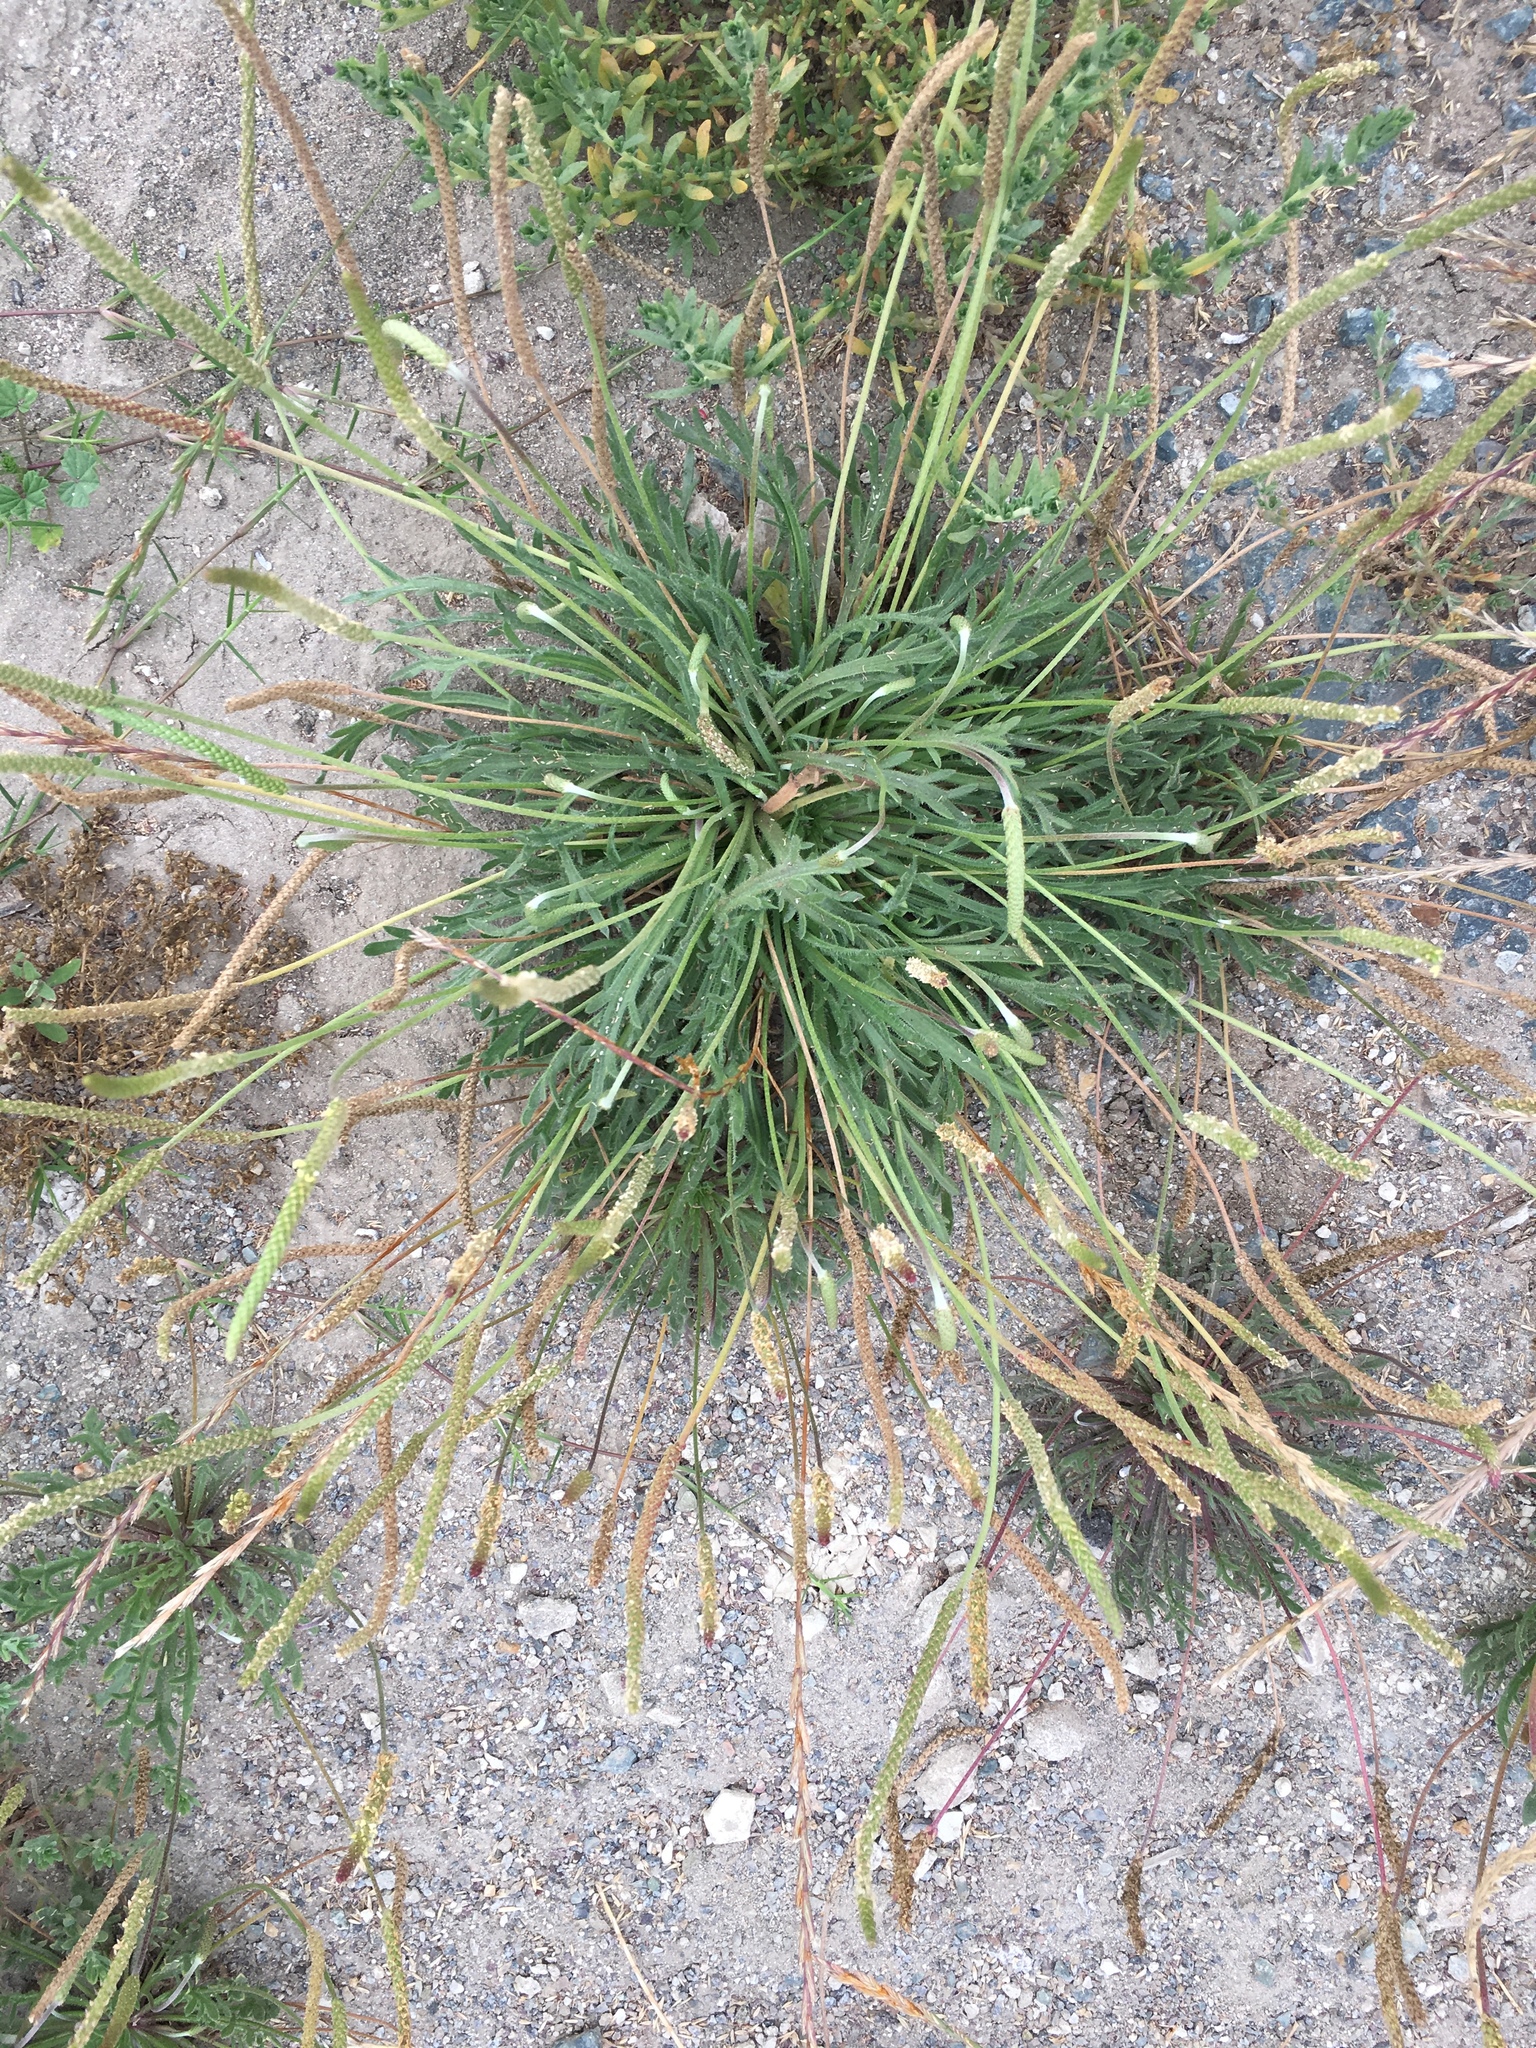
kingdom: Plantae
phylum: Tracheophyta
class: Magnoliopsida
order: Lamiales
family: Plantaginaceae
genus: Plantago
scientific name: Plantago coronopus
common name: Buck's-horn plantain
